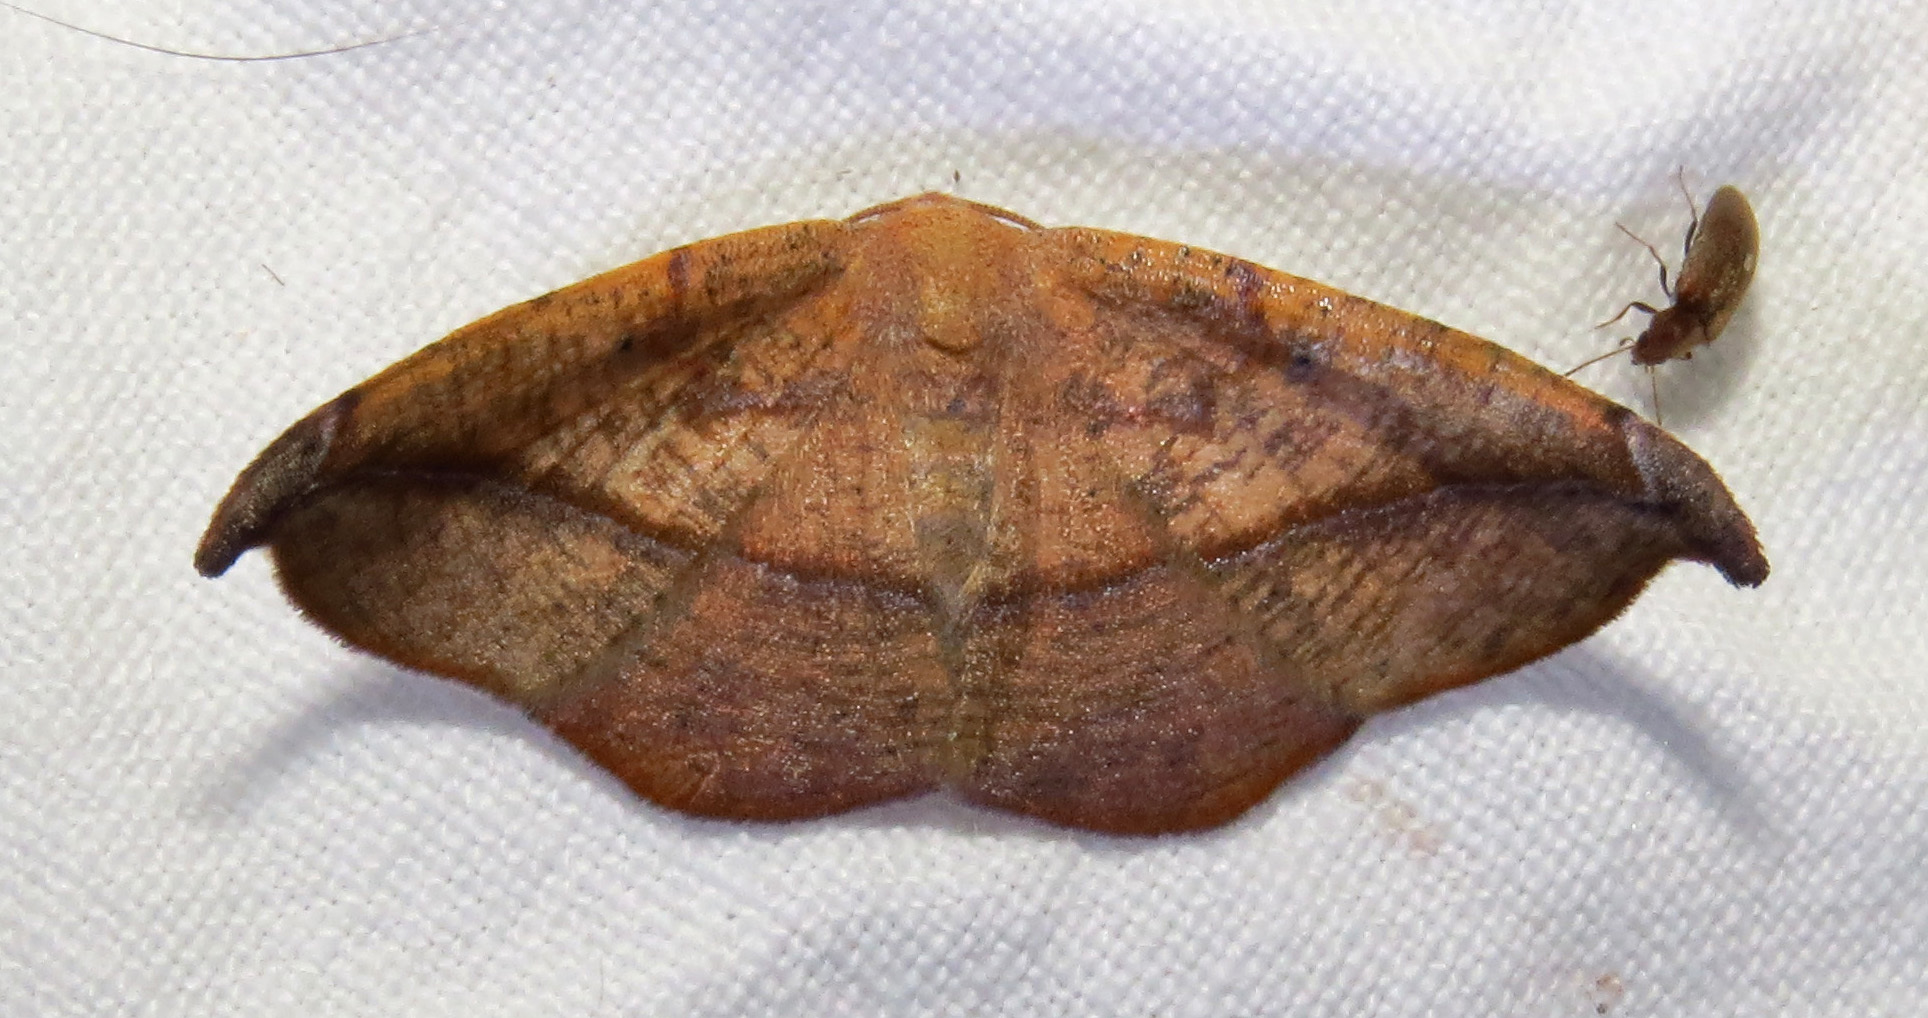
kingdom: Animalia
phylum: Arthropoda
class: Insecta
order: Lepidoptera
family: Geometridae
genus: Patalene
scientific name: Patalene olyzonaria
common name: Juniper geometer moth
